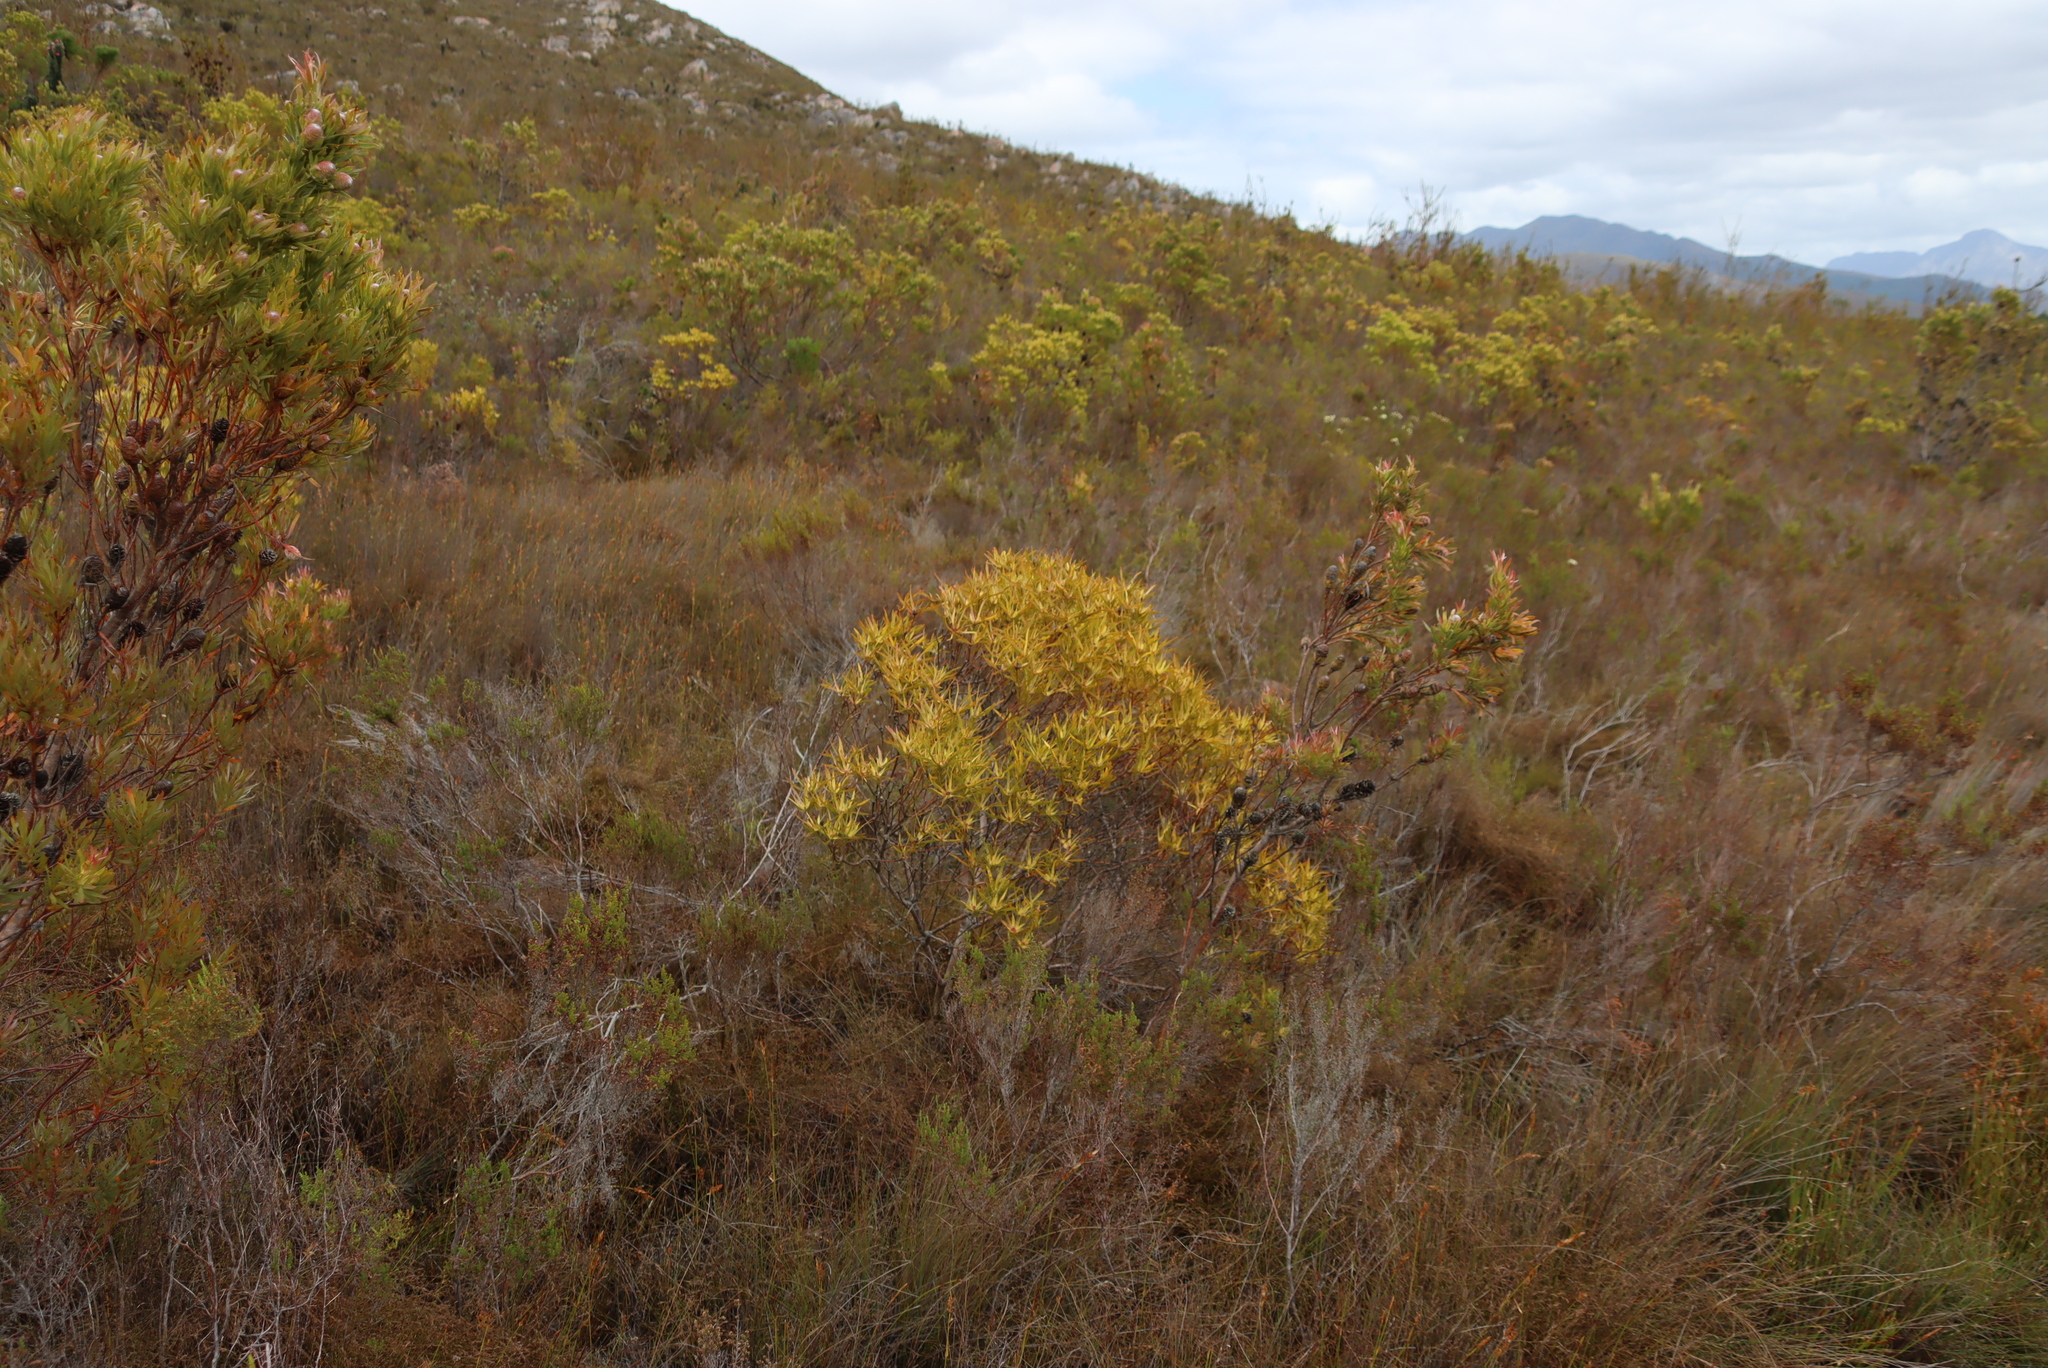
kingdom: Plantae
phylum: Tracheophyta
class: Magnoliopsida
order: Proteales
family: Proteaceae
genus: Leucadendron
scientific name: Leucadendron xanthoconus
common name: Sickle-leaf conebush
